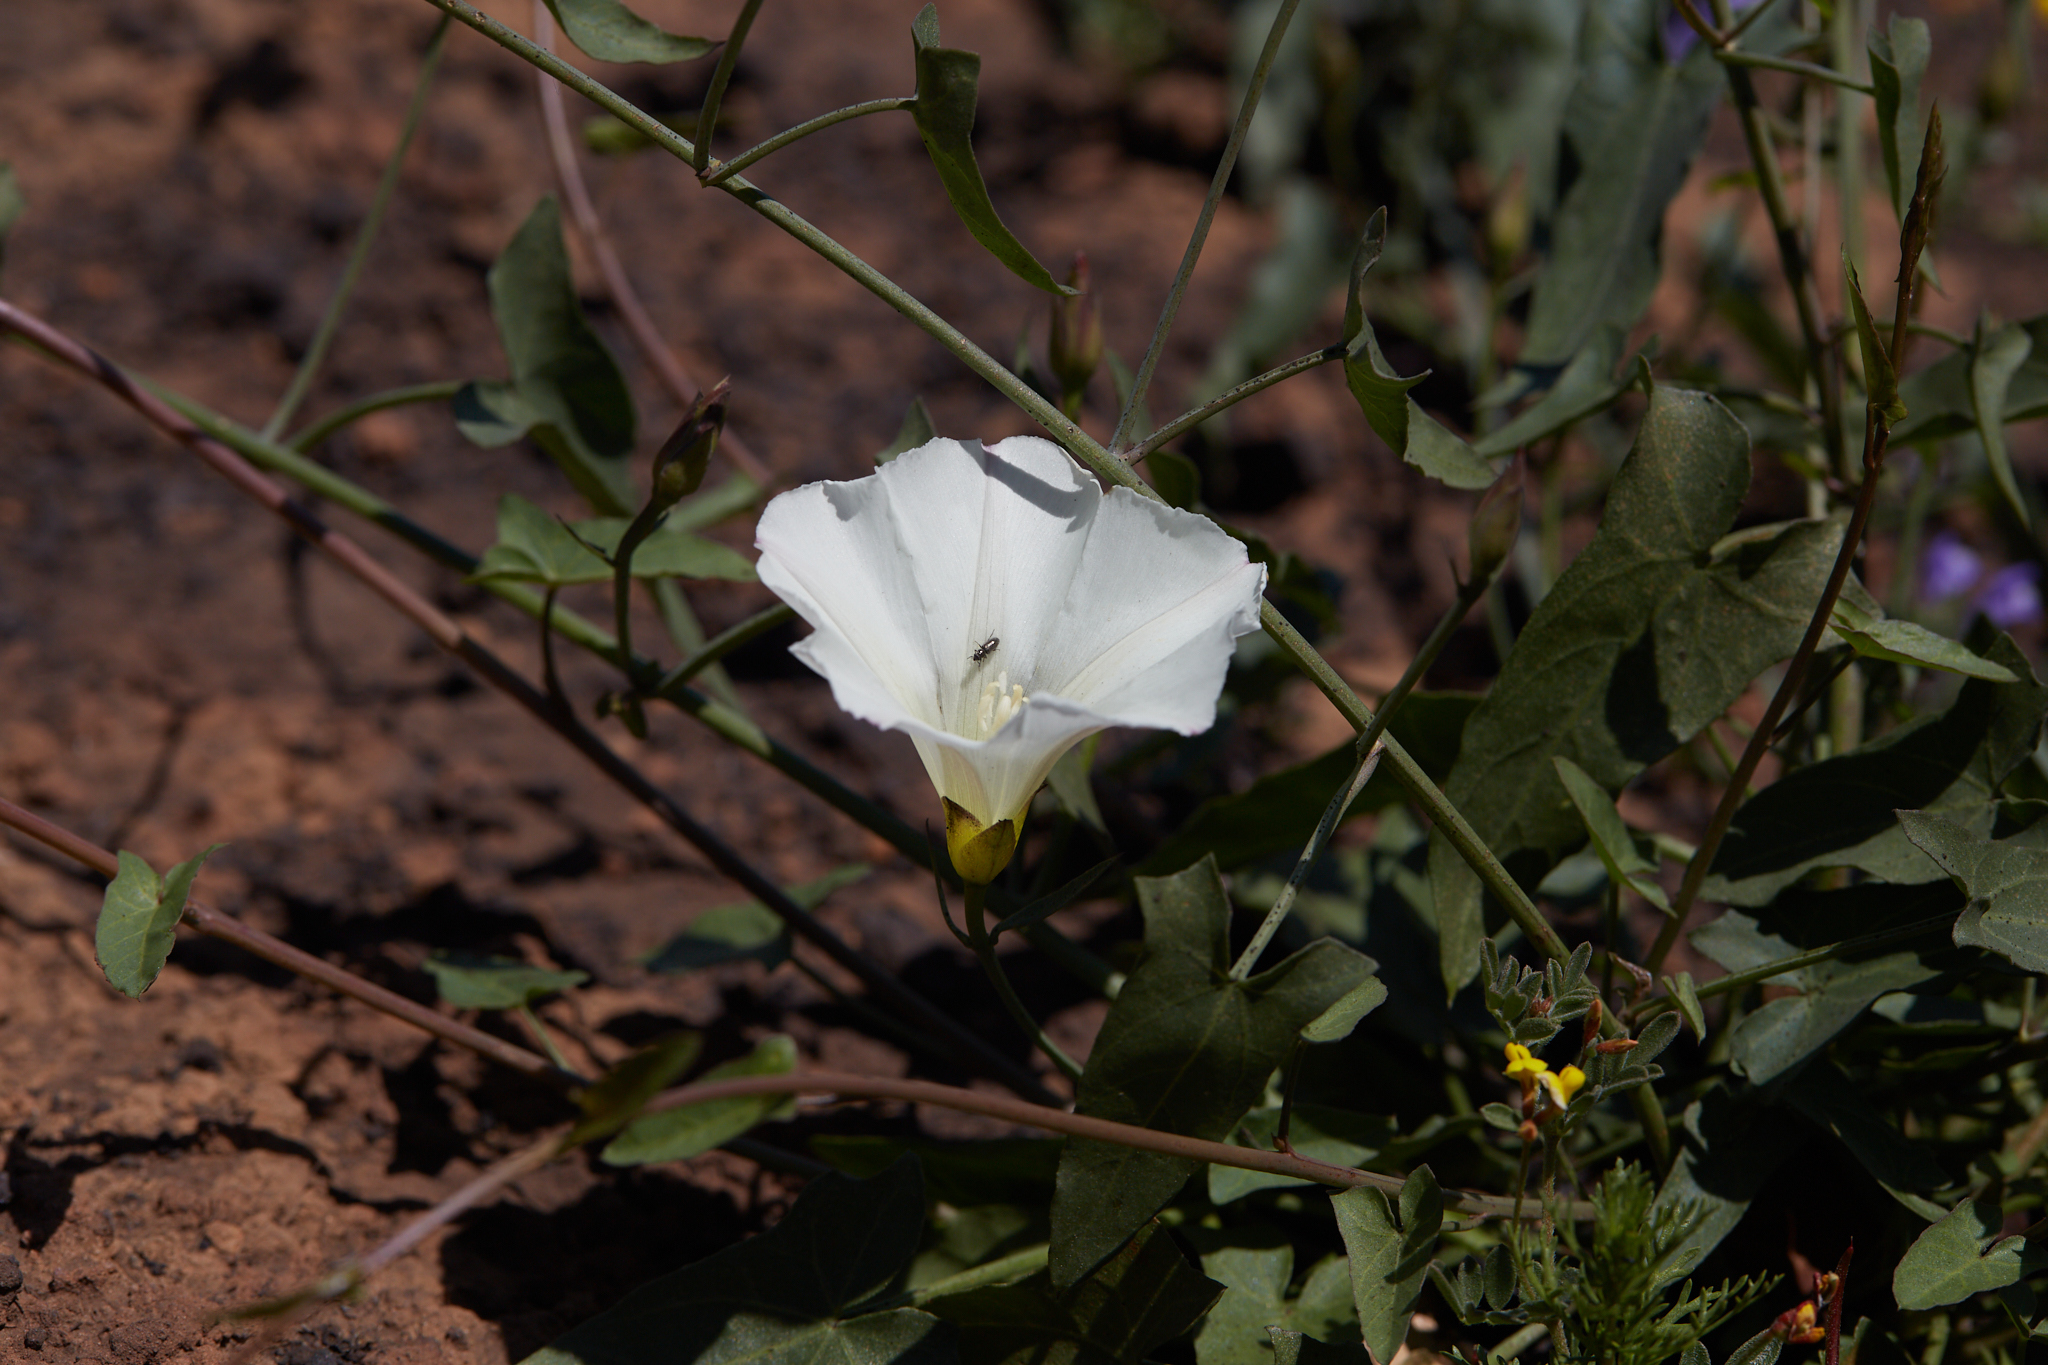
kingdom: Plantae
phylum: Tracheophyta
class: Magnoliopsida
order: Solanales
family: Convolvulaceae
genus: Calystegia
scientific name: Calystegia purpurata
